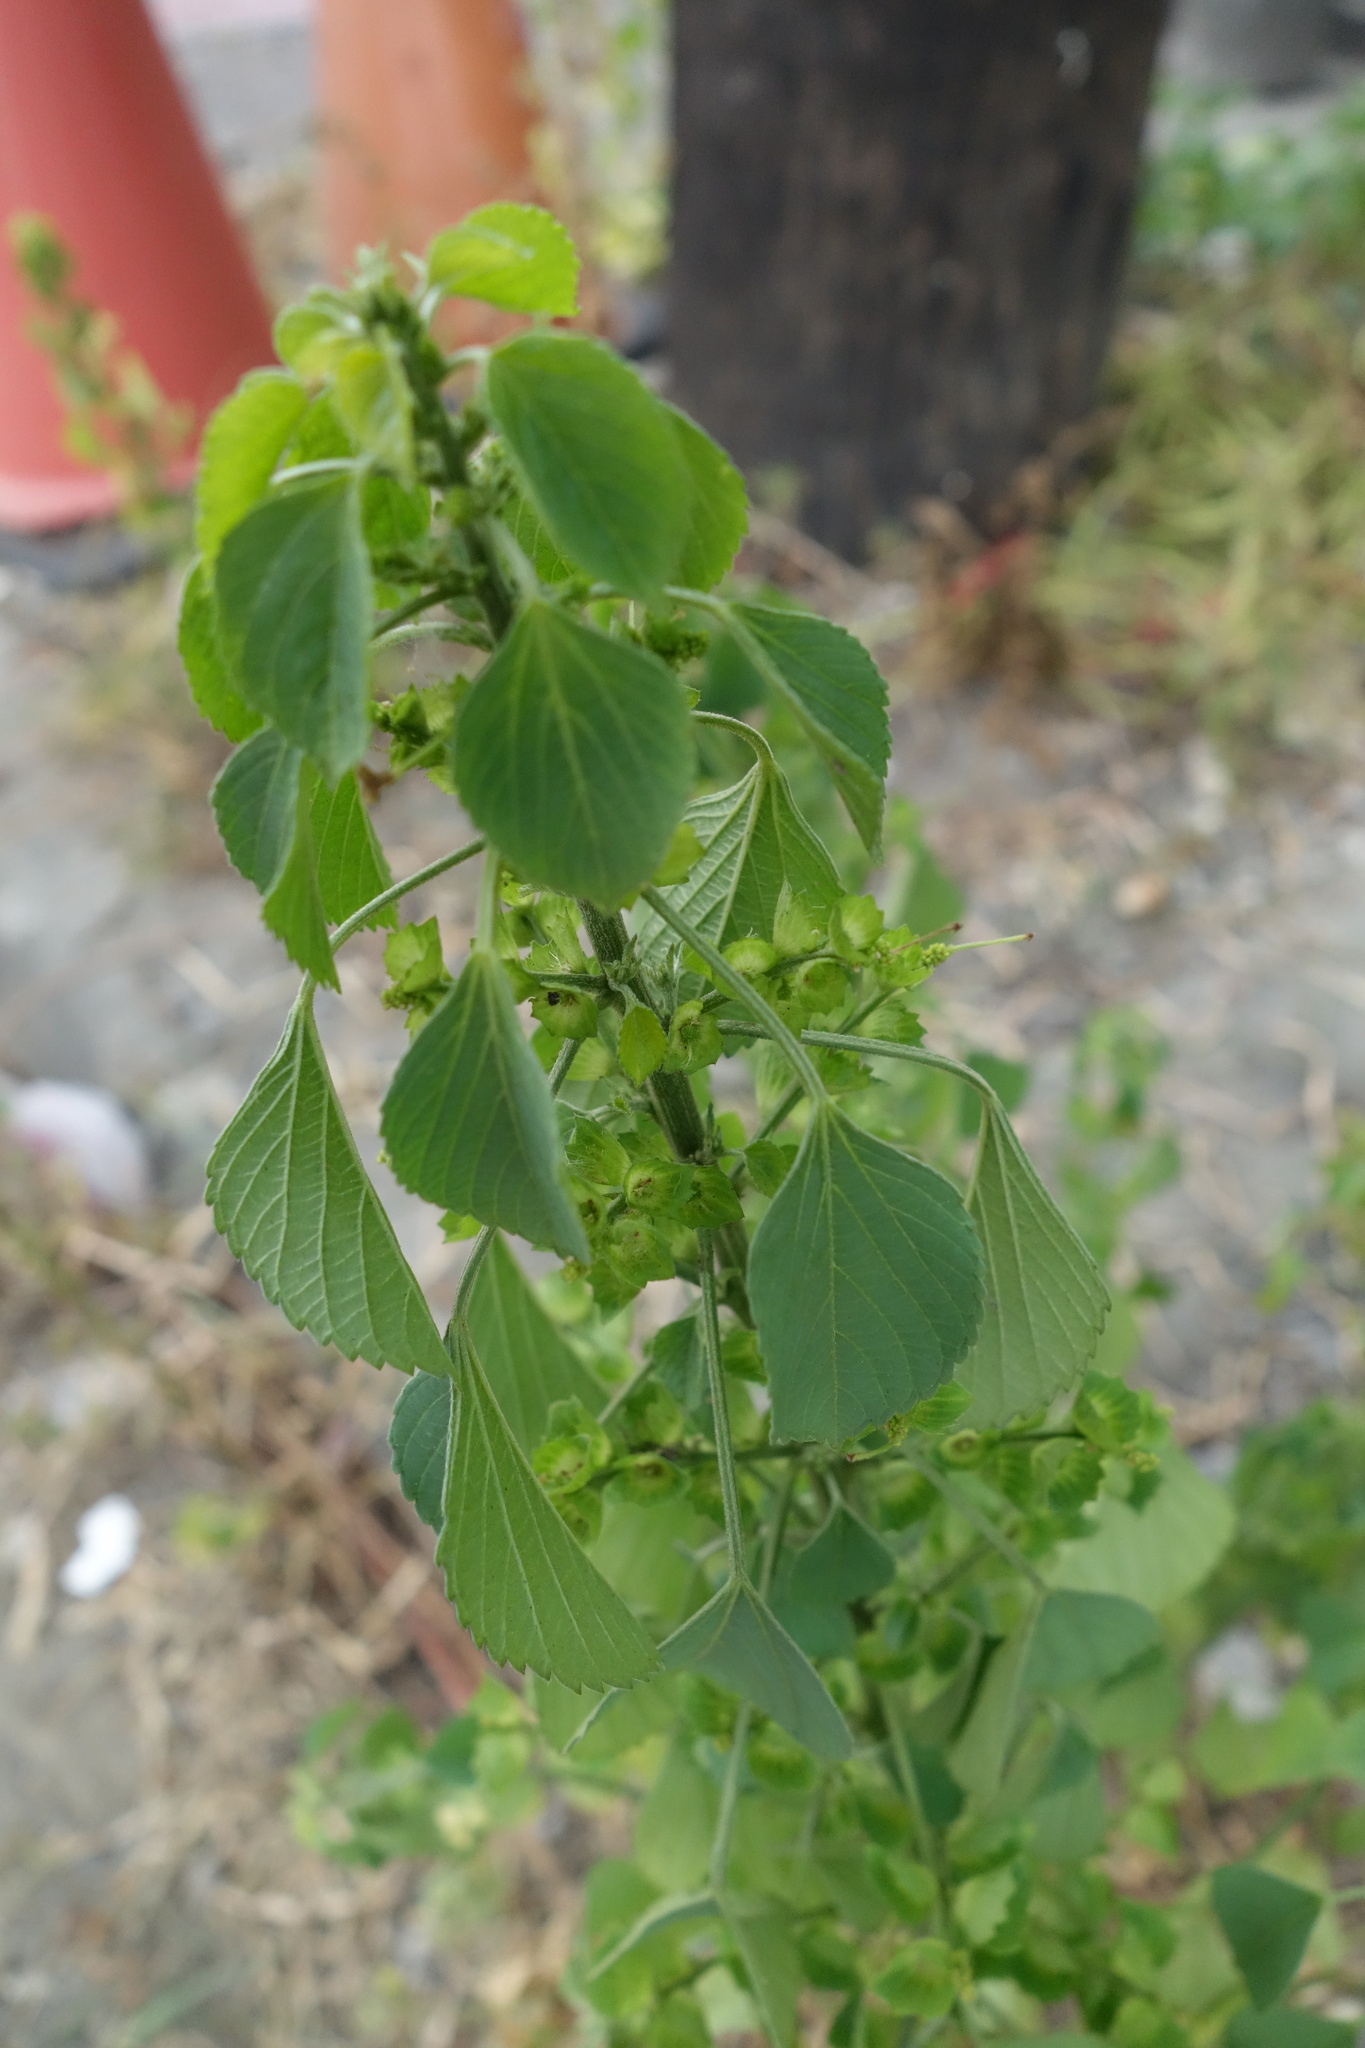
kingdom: Plantae
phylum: Tracheophyta
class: Magnoliopsida
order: Malpighiales
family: Euphorbiaceae
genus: Acalypha
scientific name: Acalypha indica
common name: Indian acalypha
